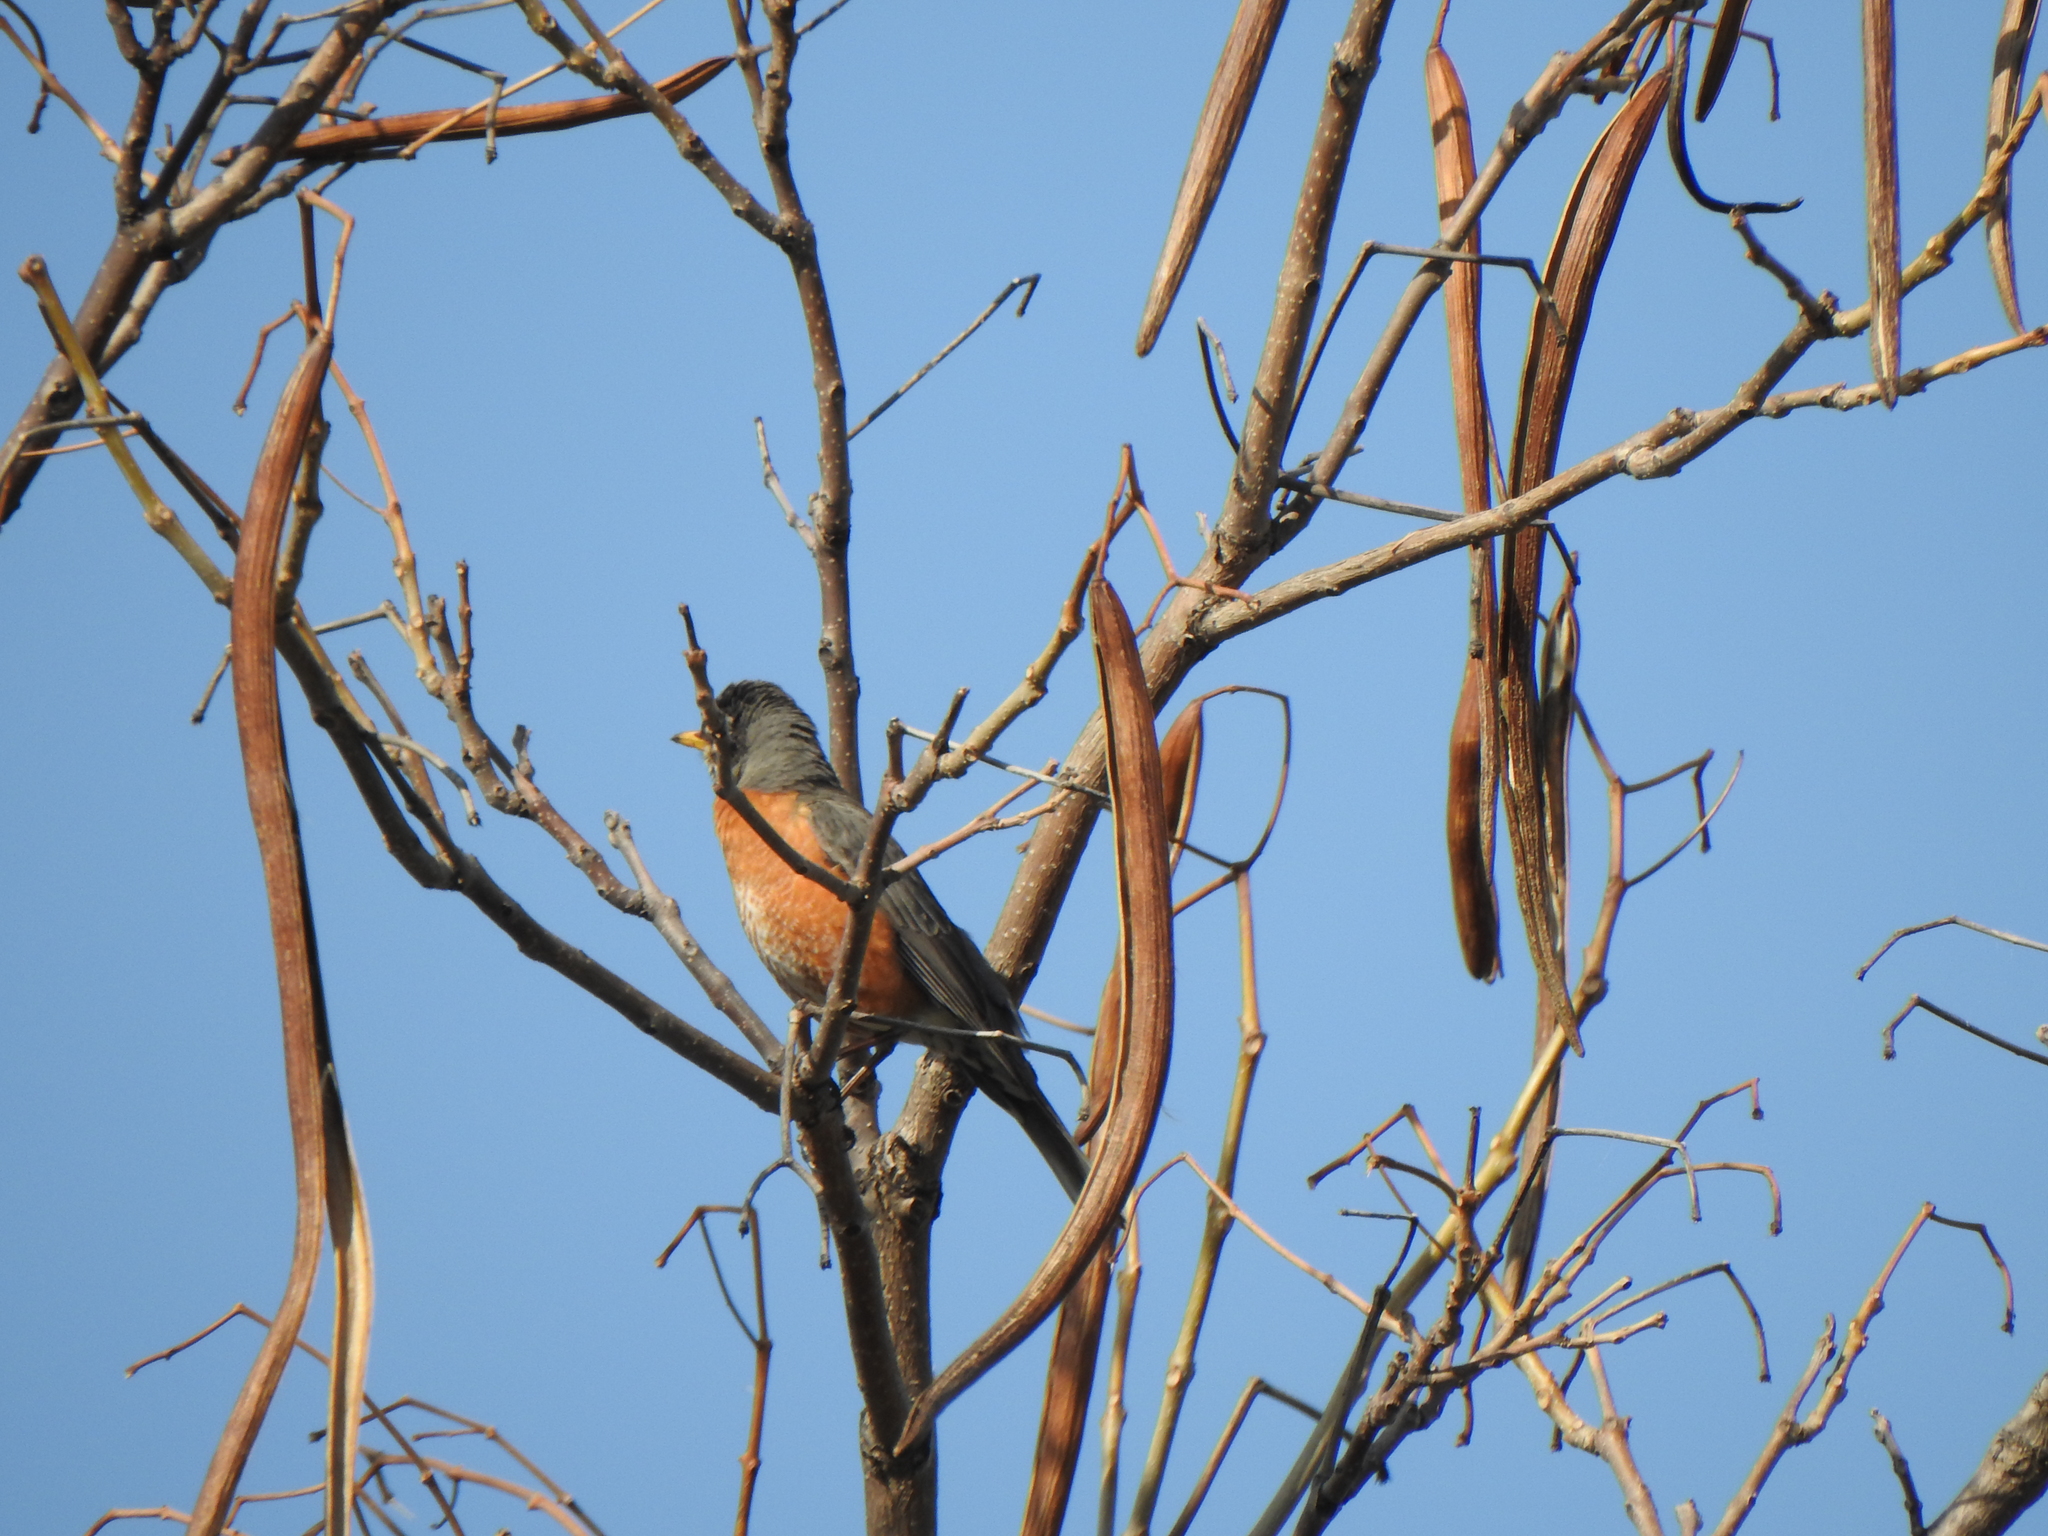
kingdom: Animalia
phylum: Chordata
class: Aves
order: Passeriformes
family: Turdidae
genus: Turdus
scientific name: Turdus migratorius
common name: American robin
